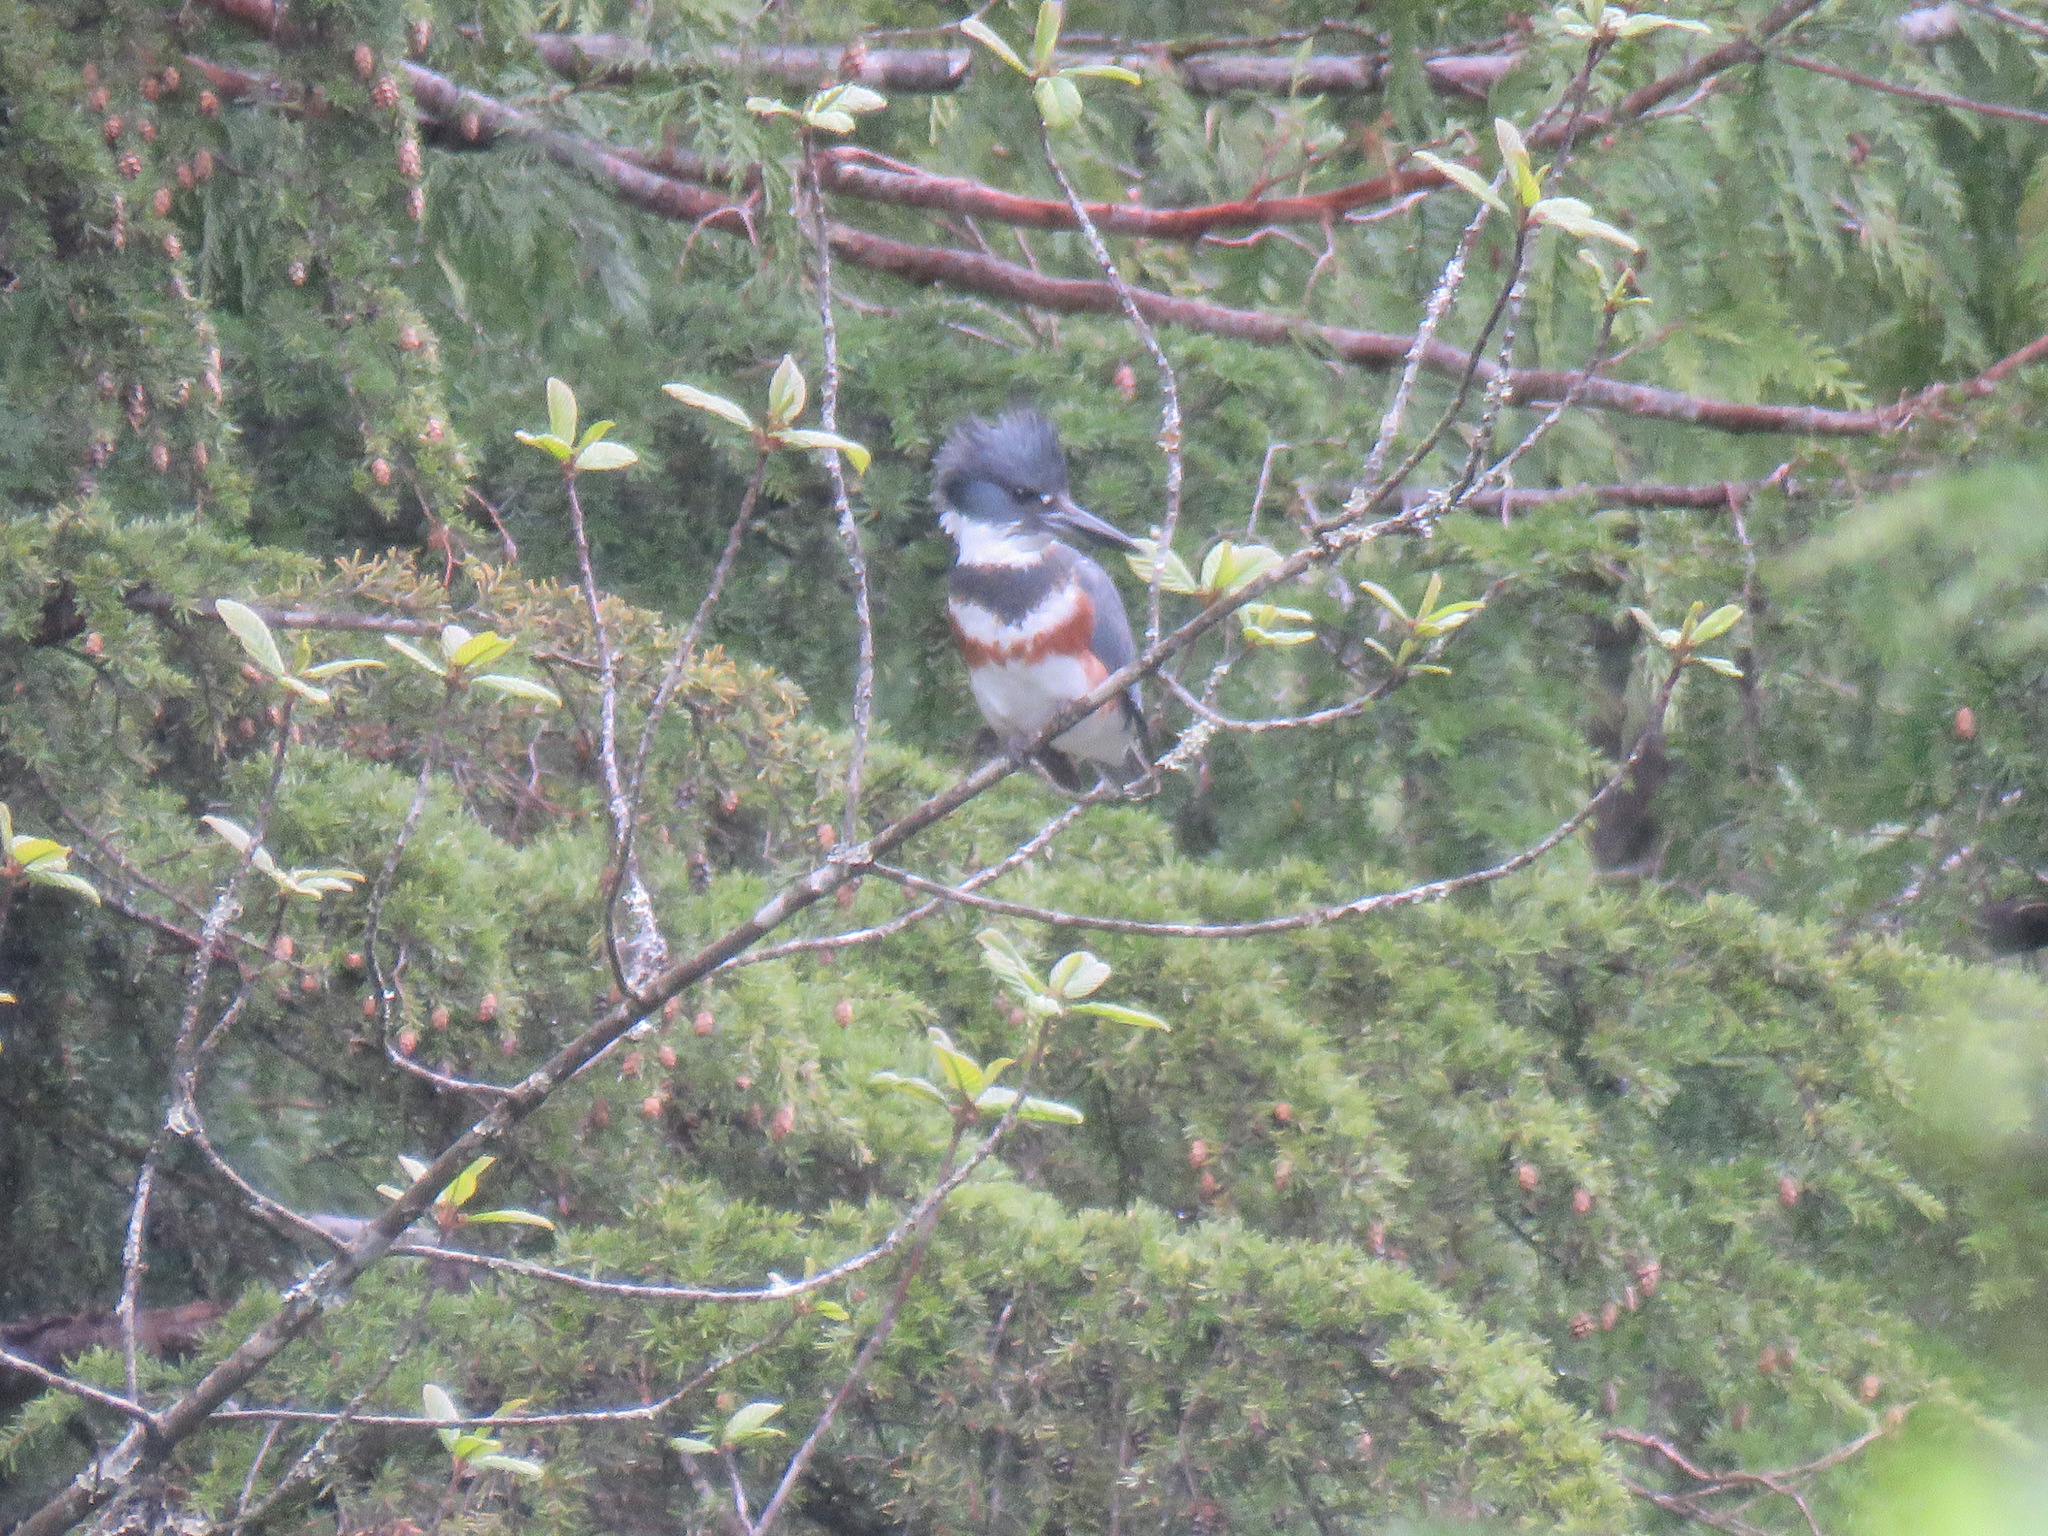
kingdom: Animalia
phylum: Chordata
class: Aves
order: Coraciiformes
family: Alcedinidae
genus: Megaceryle
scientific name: Megaceryle alcyon
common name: Belted kingfisher
